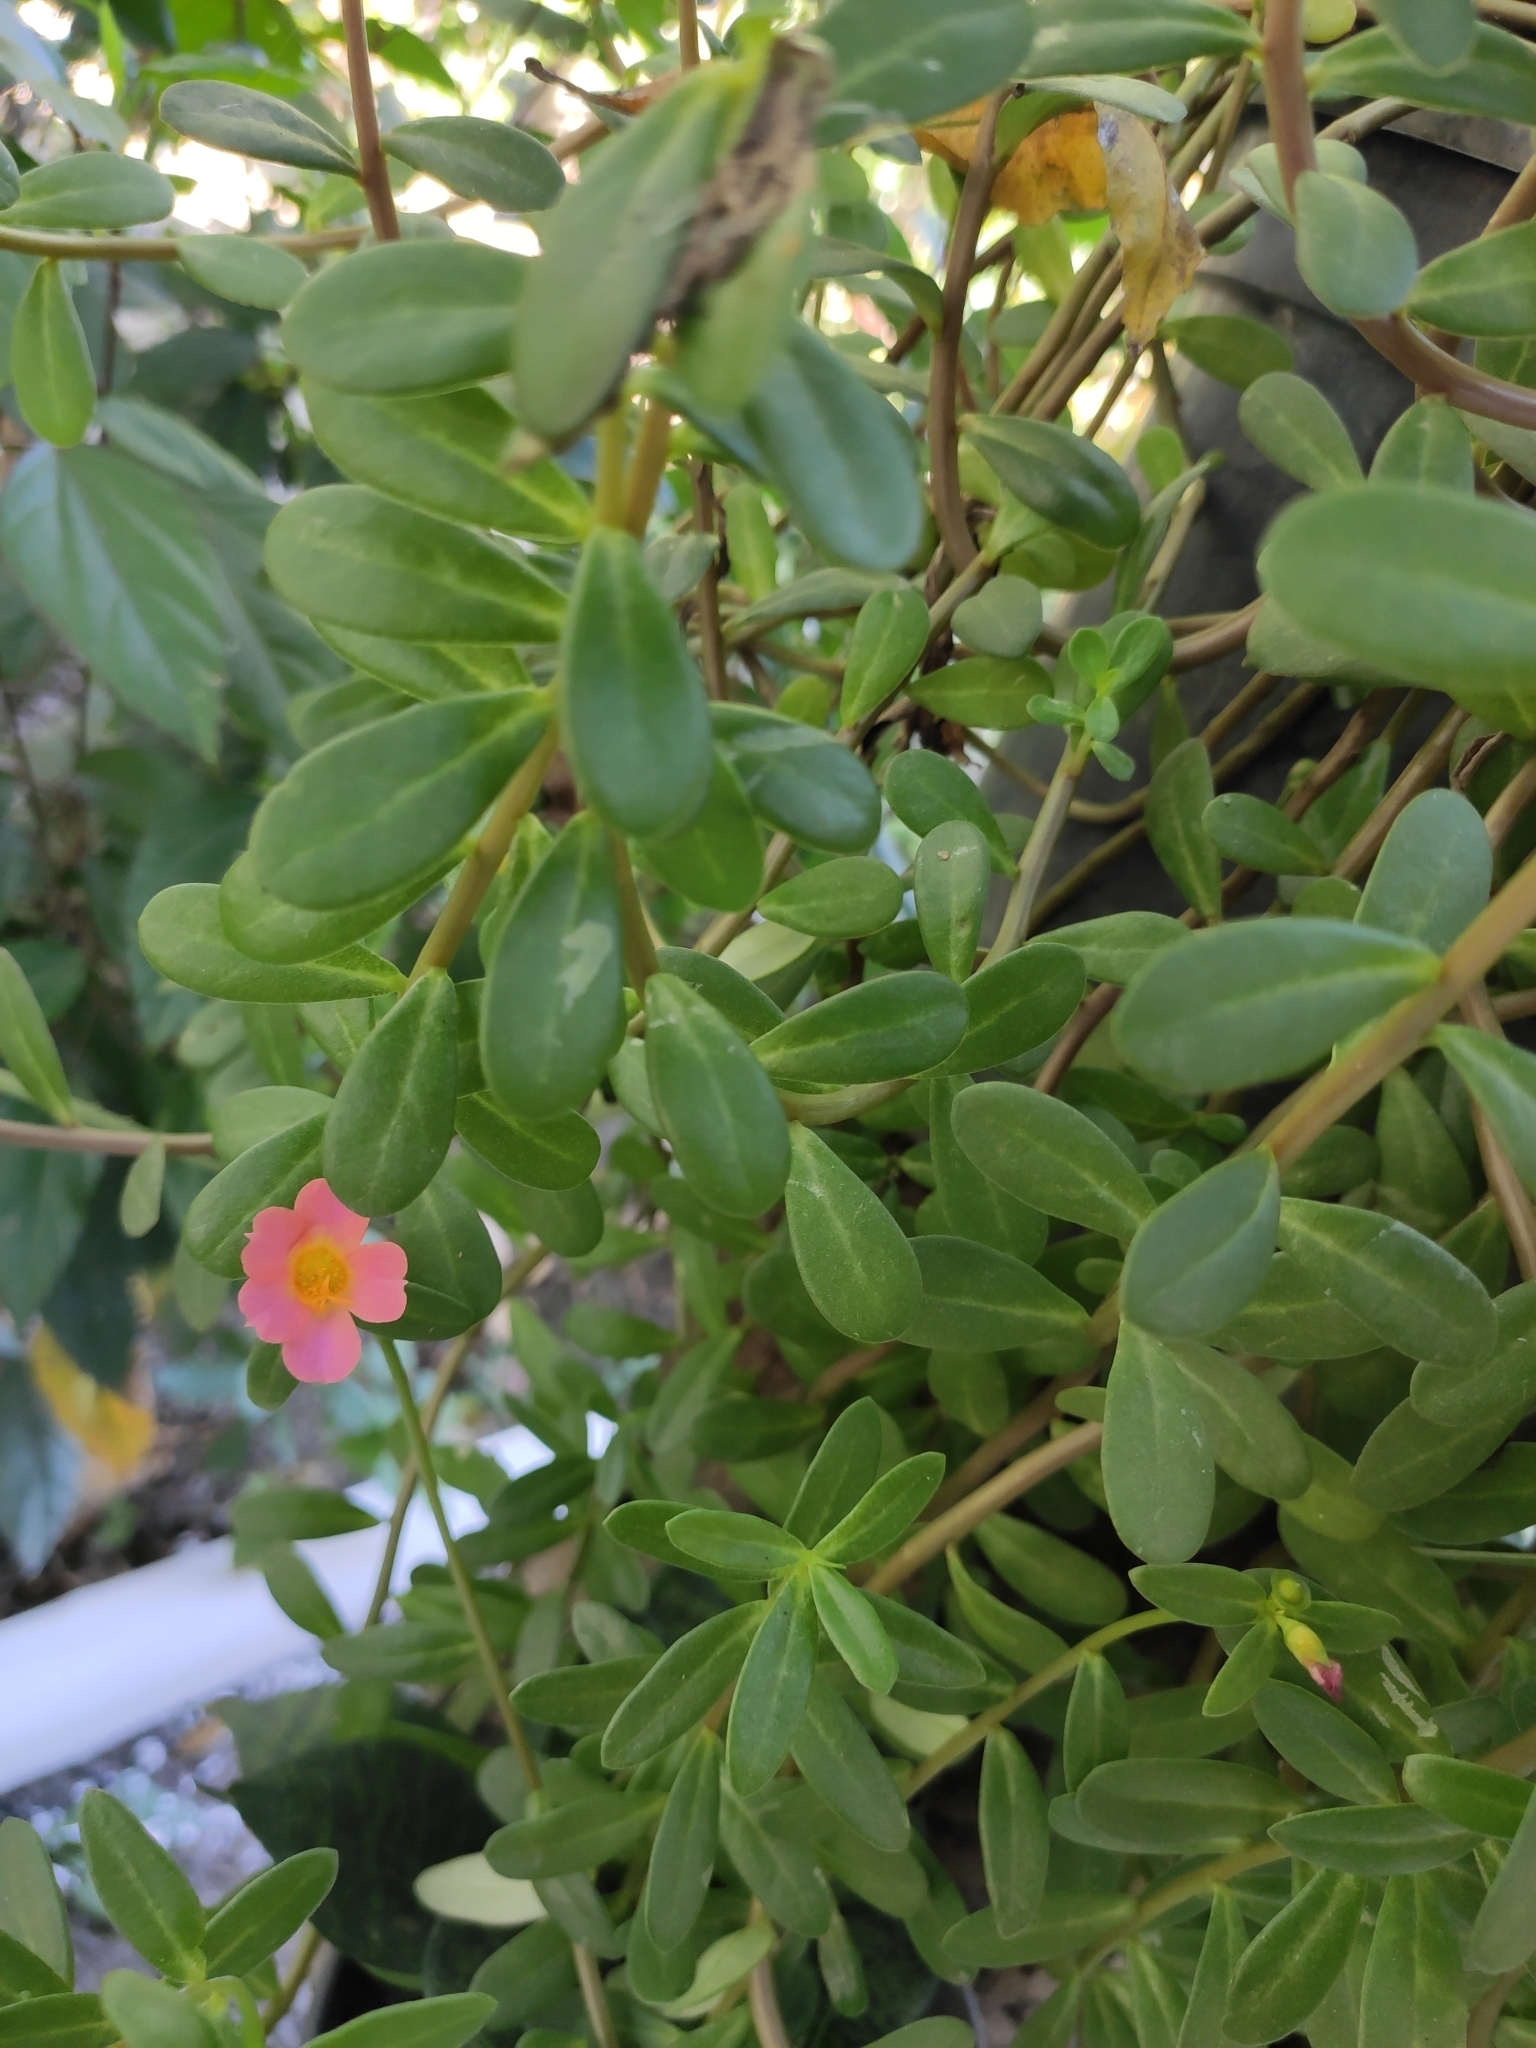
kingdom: Plantae
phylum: Tracheophyta
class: Magnoliopsida
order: Caryophyllales
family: Portulacaceae
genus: Portulaca
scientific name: Portulaca umbraticola
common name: Wingpod purslane
